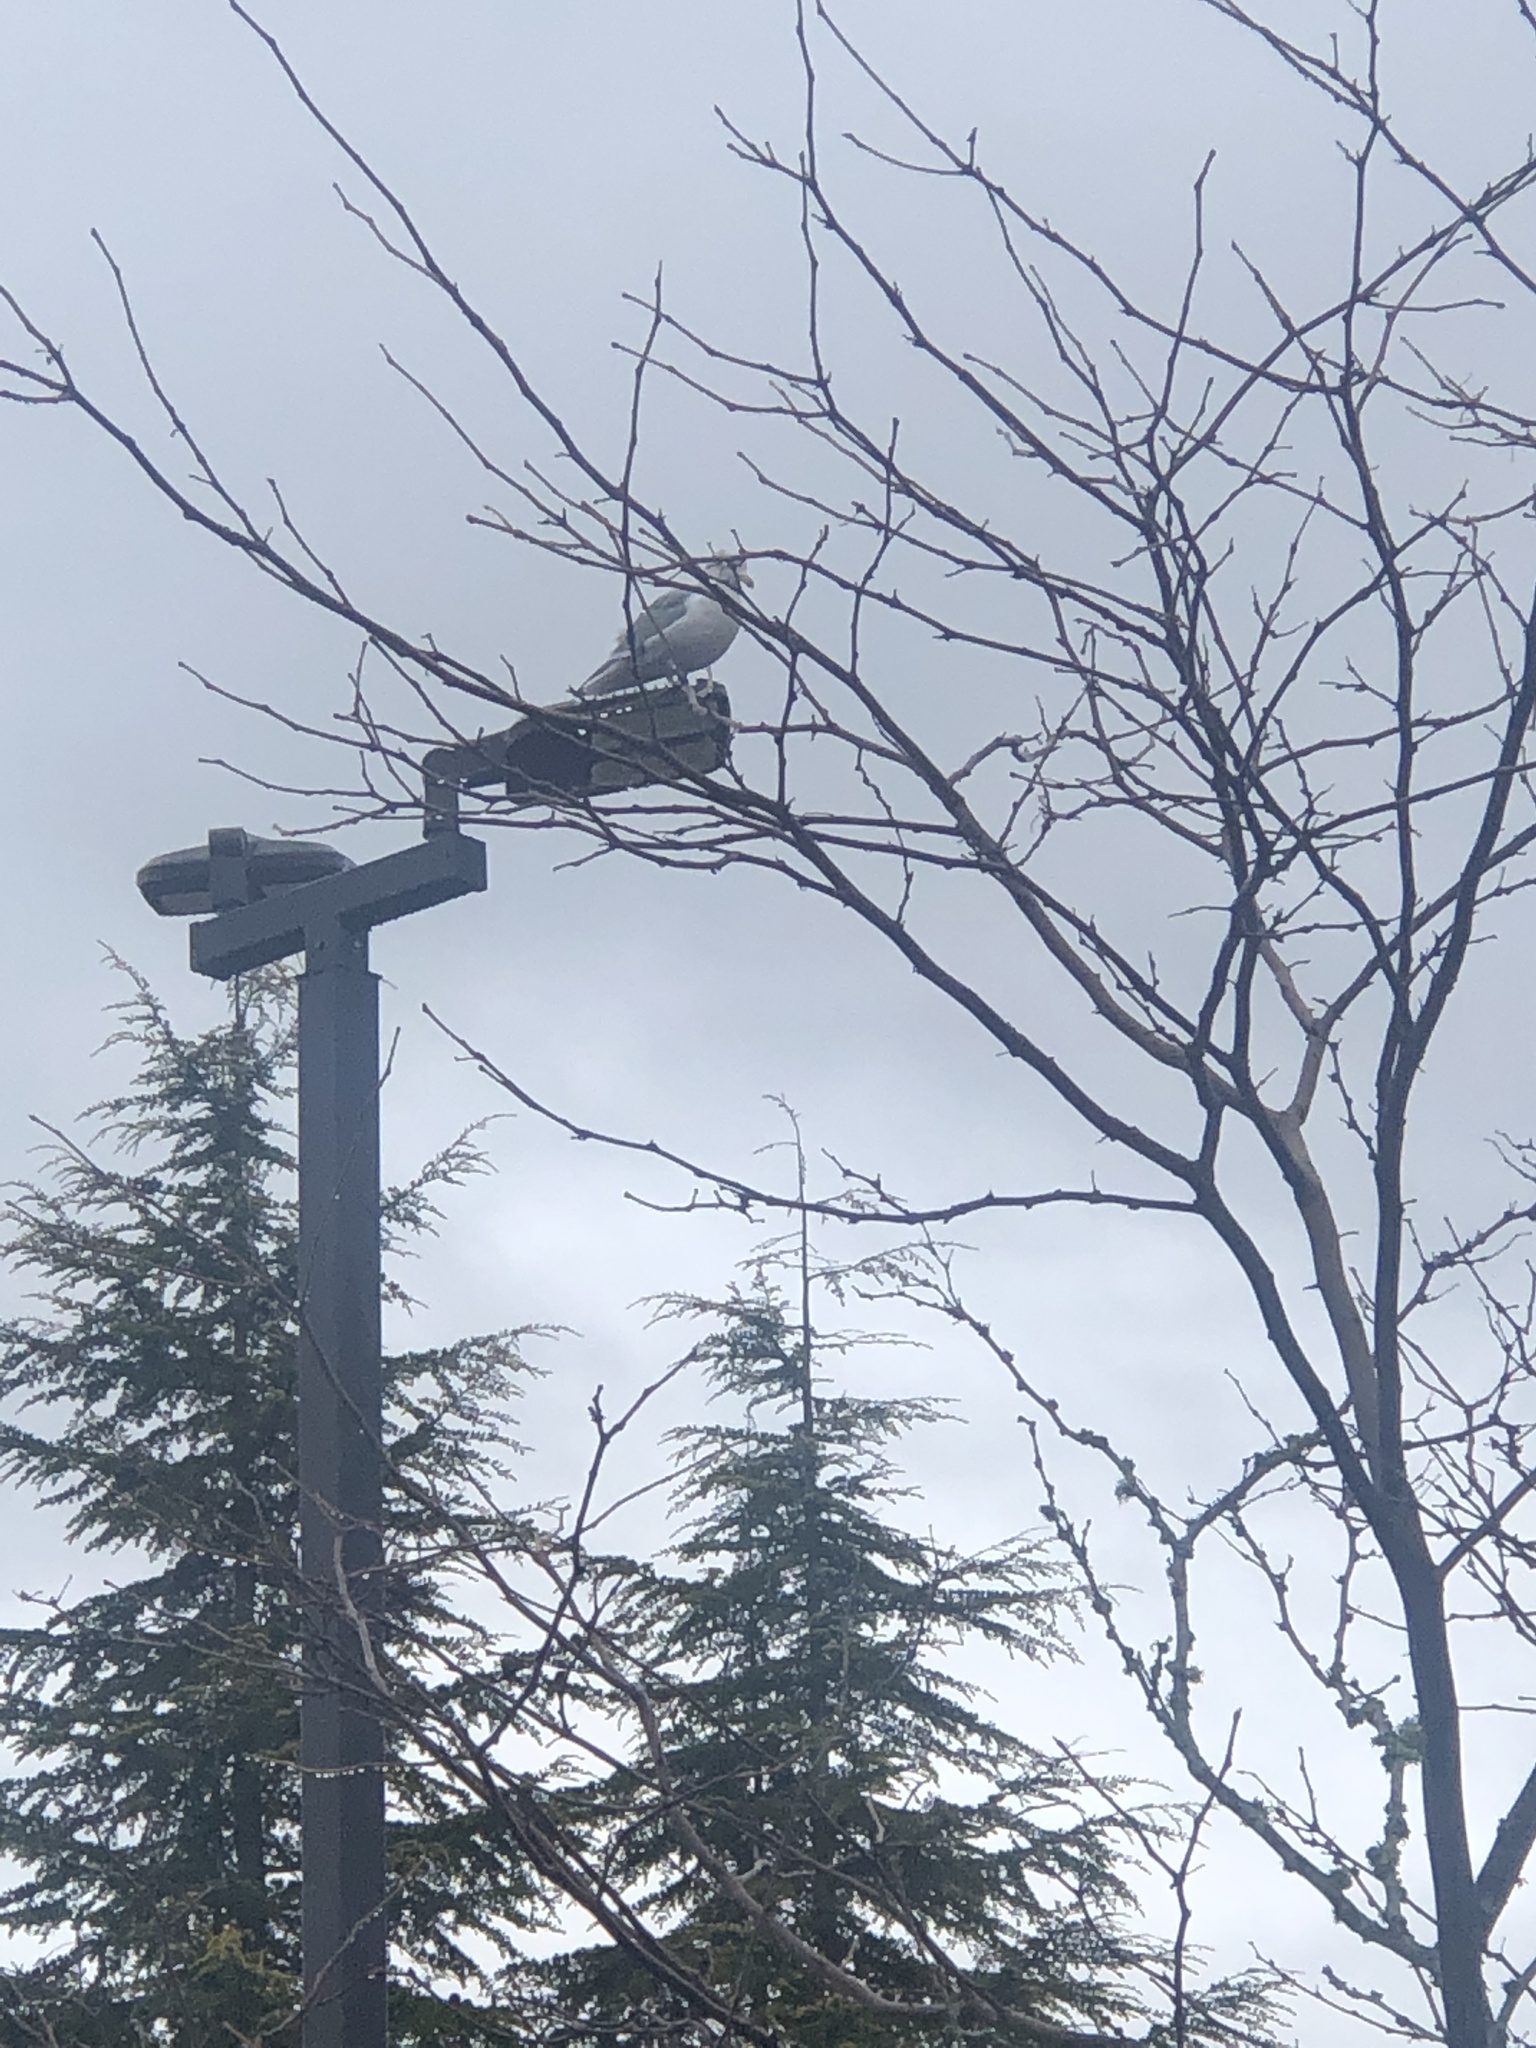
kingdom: Animalia
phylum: Chordata
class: Aves
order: Charadriiformes
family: Laridae
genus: Larus
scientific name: Larus
